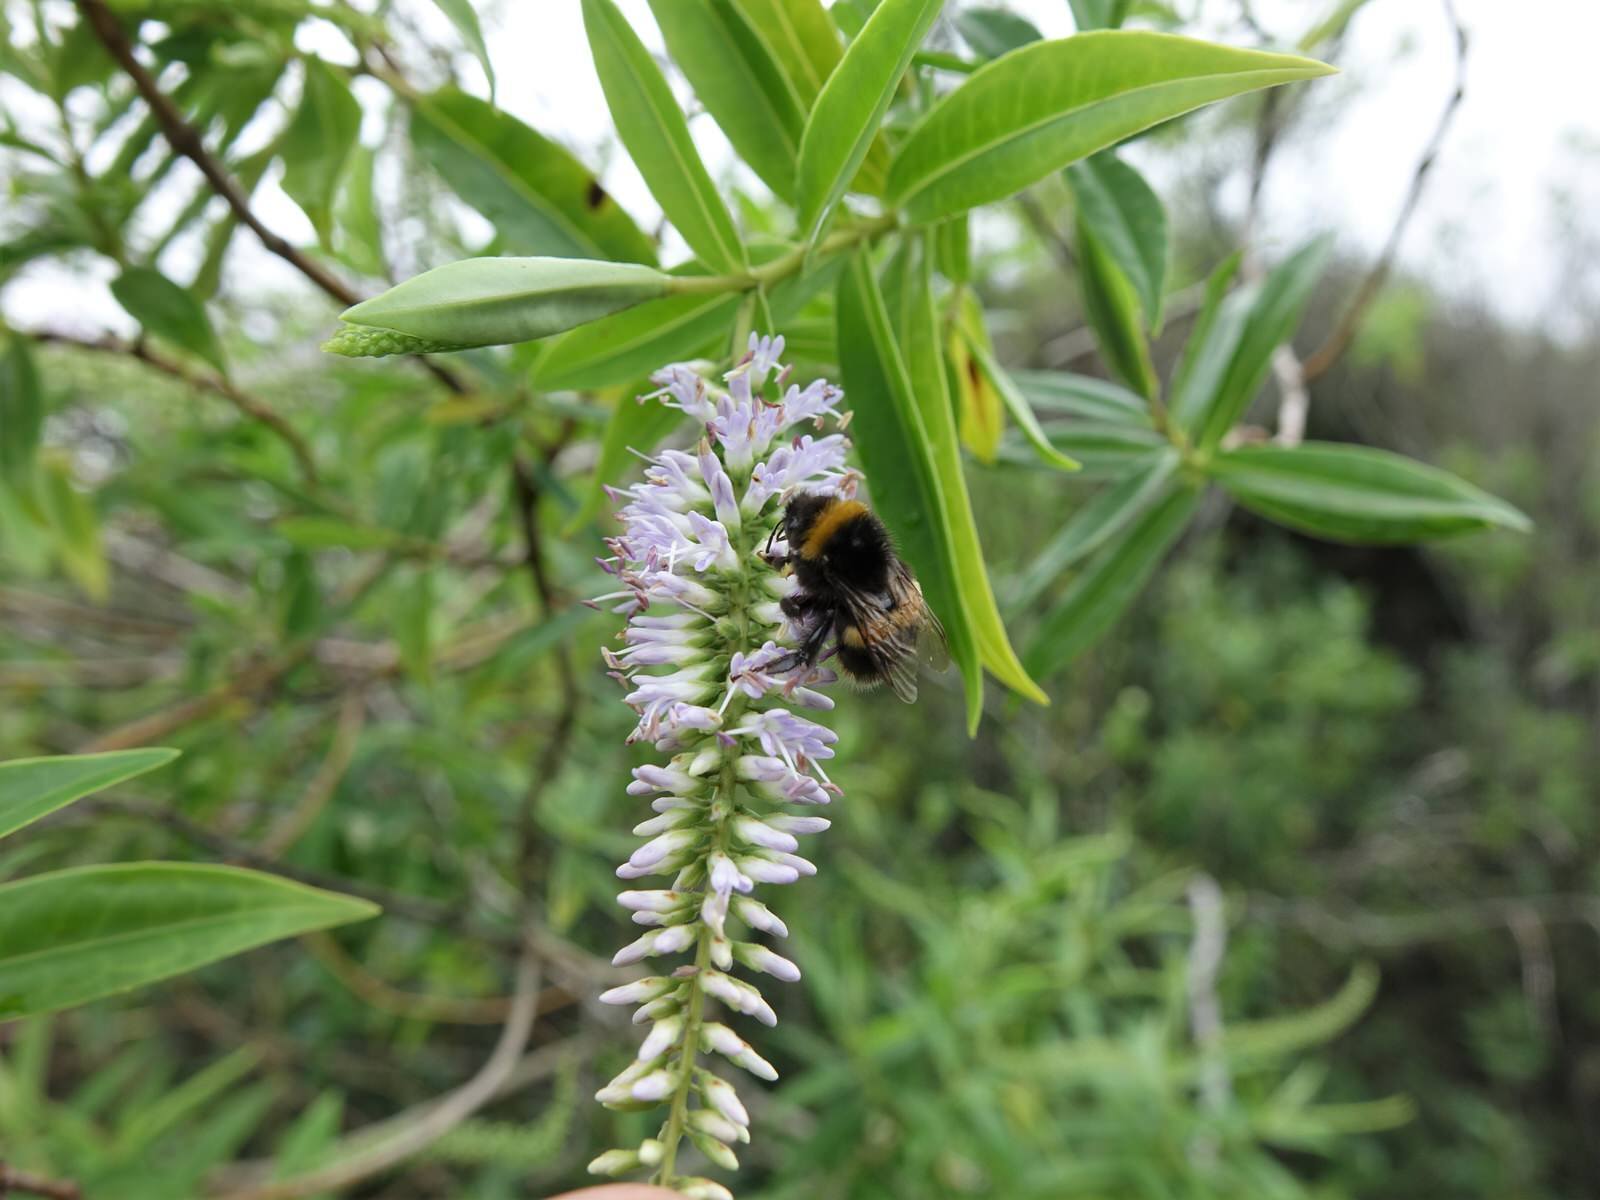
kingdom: Animalia
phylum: Arthropoda
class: Insecta
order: Hymenoptera
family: Apidae
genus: Bombus
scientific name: Bombus terrestris
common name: Buff-tailed bumblebee
